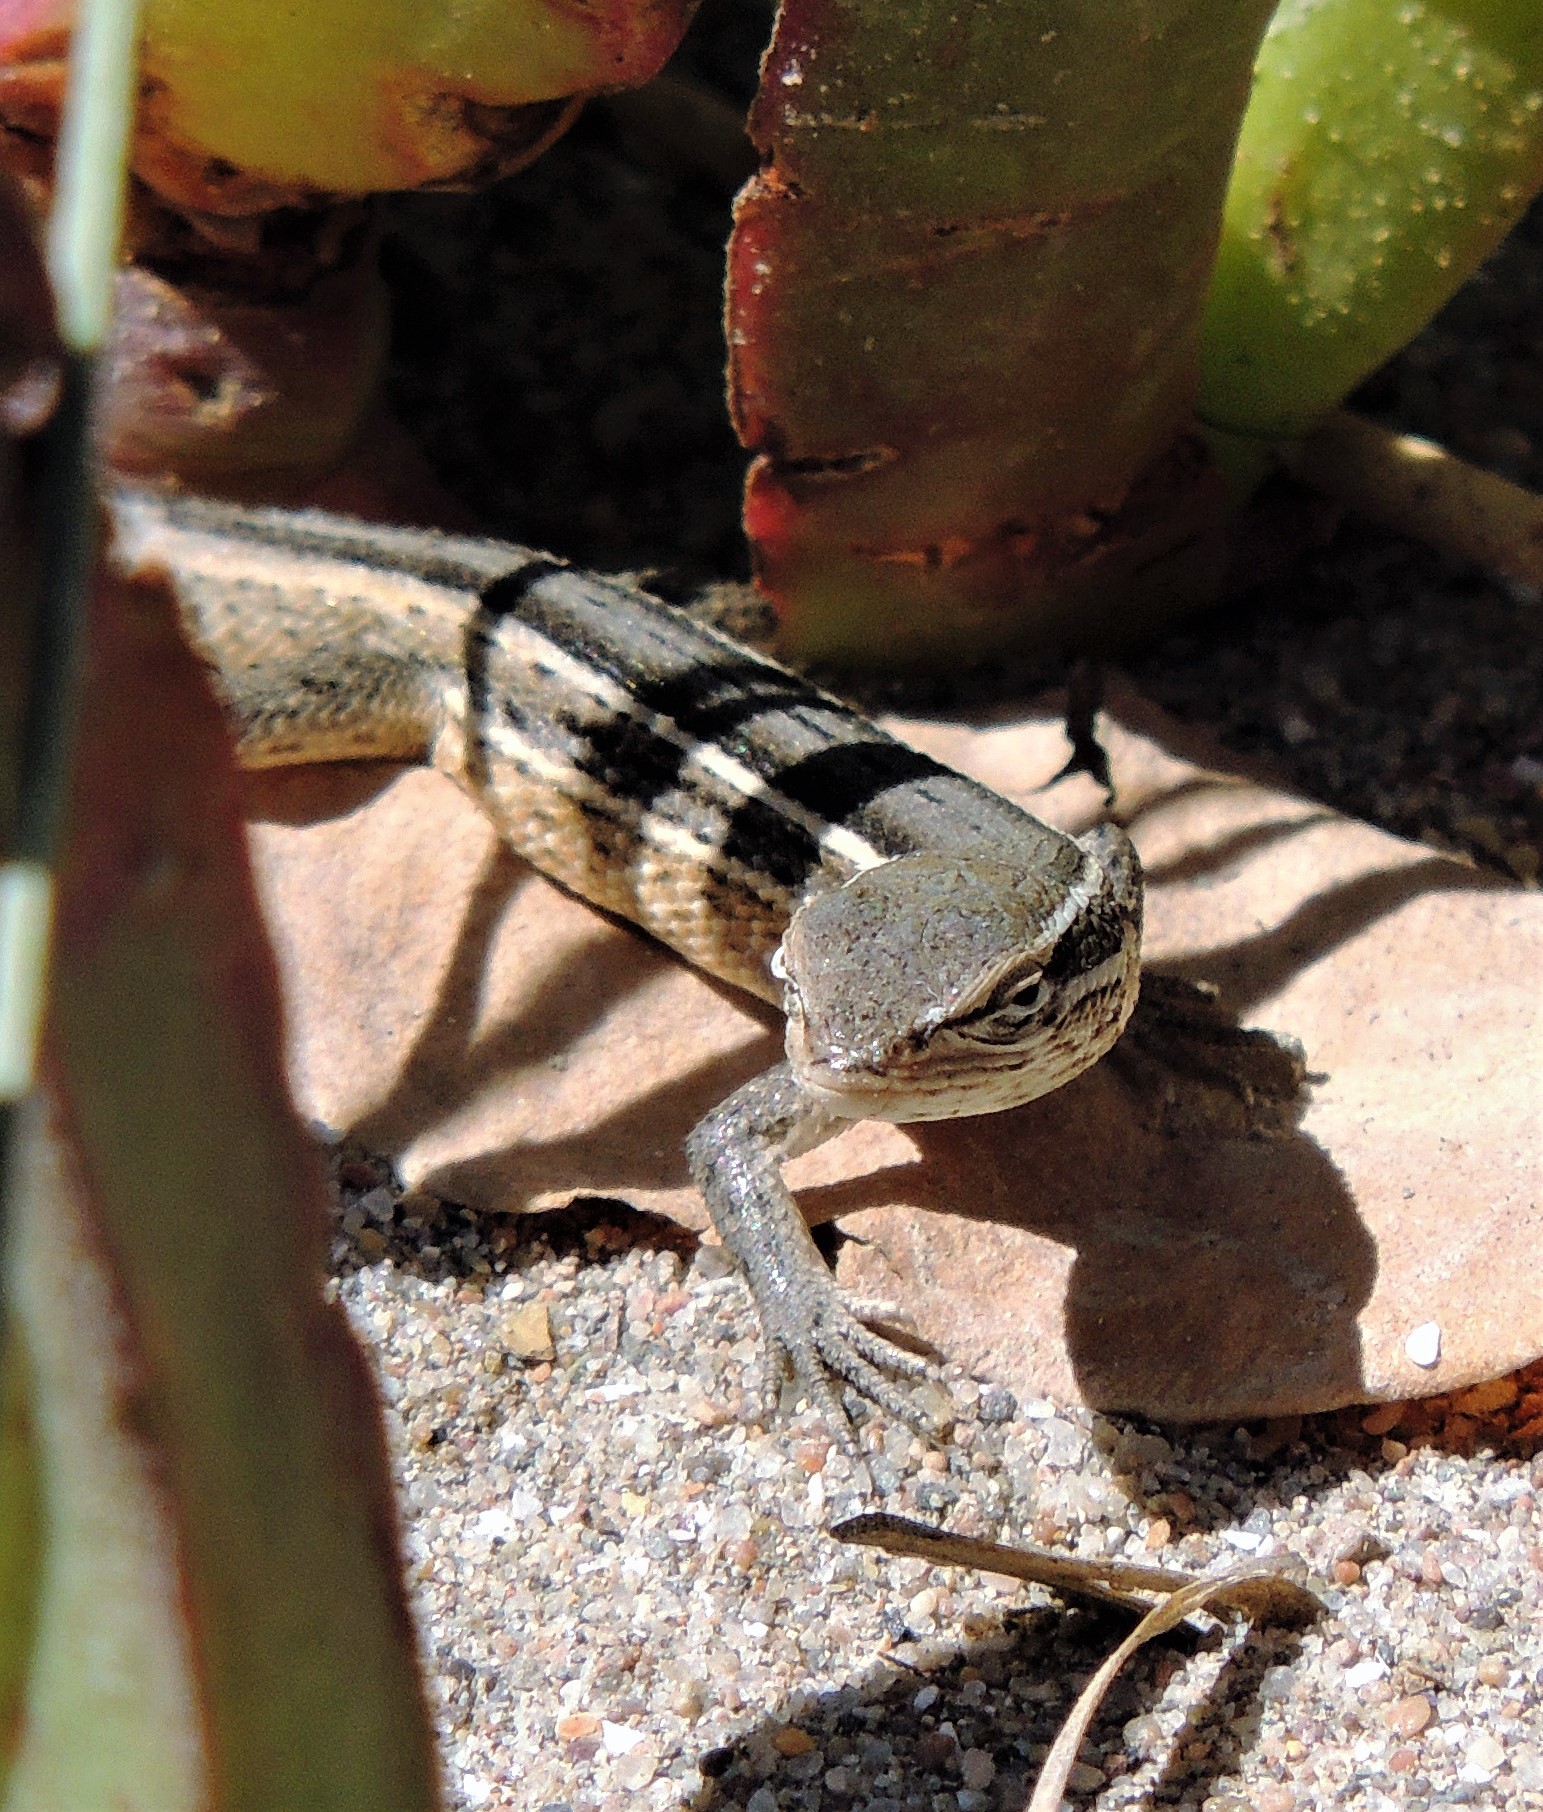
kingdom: Animalia
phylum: Chordata
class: Squamata
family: Liolaemidae
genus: Liolaemus
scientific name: Liolaemus gracilis
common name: Graceful tree iguana
